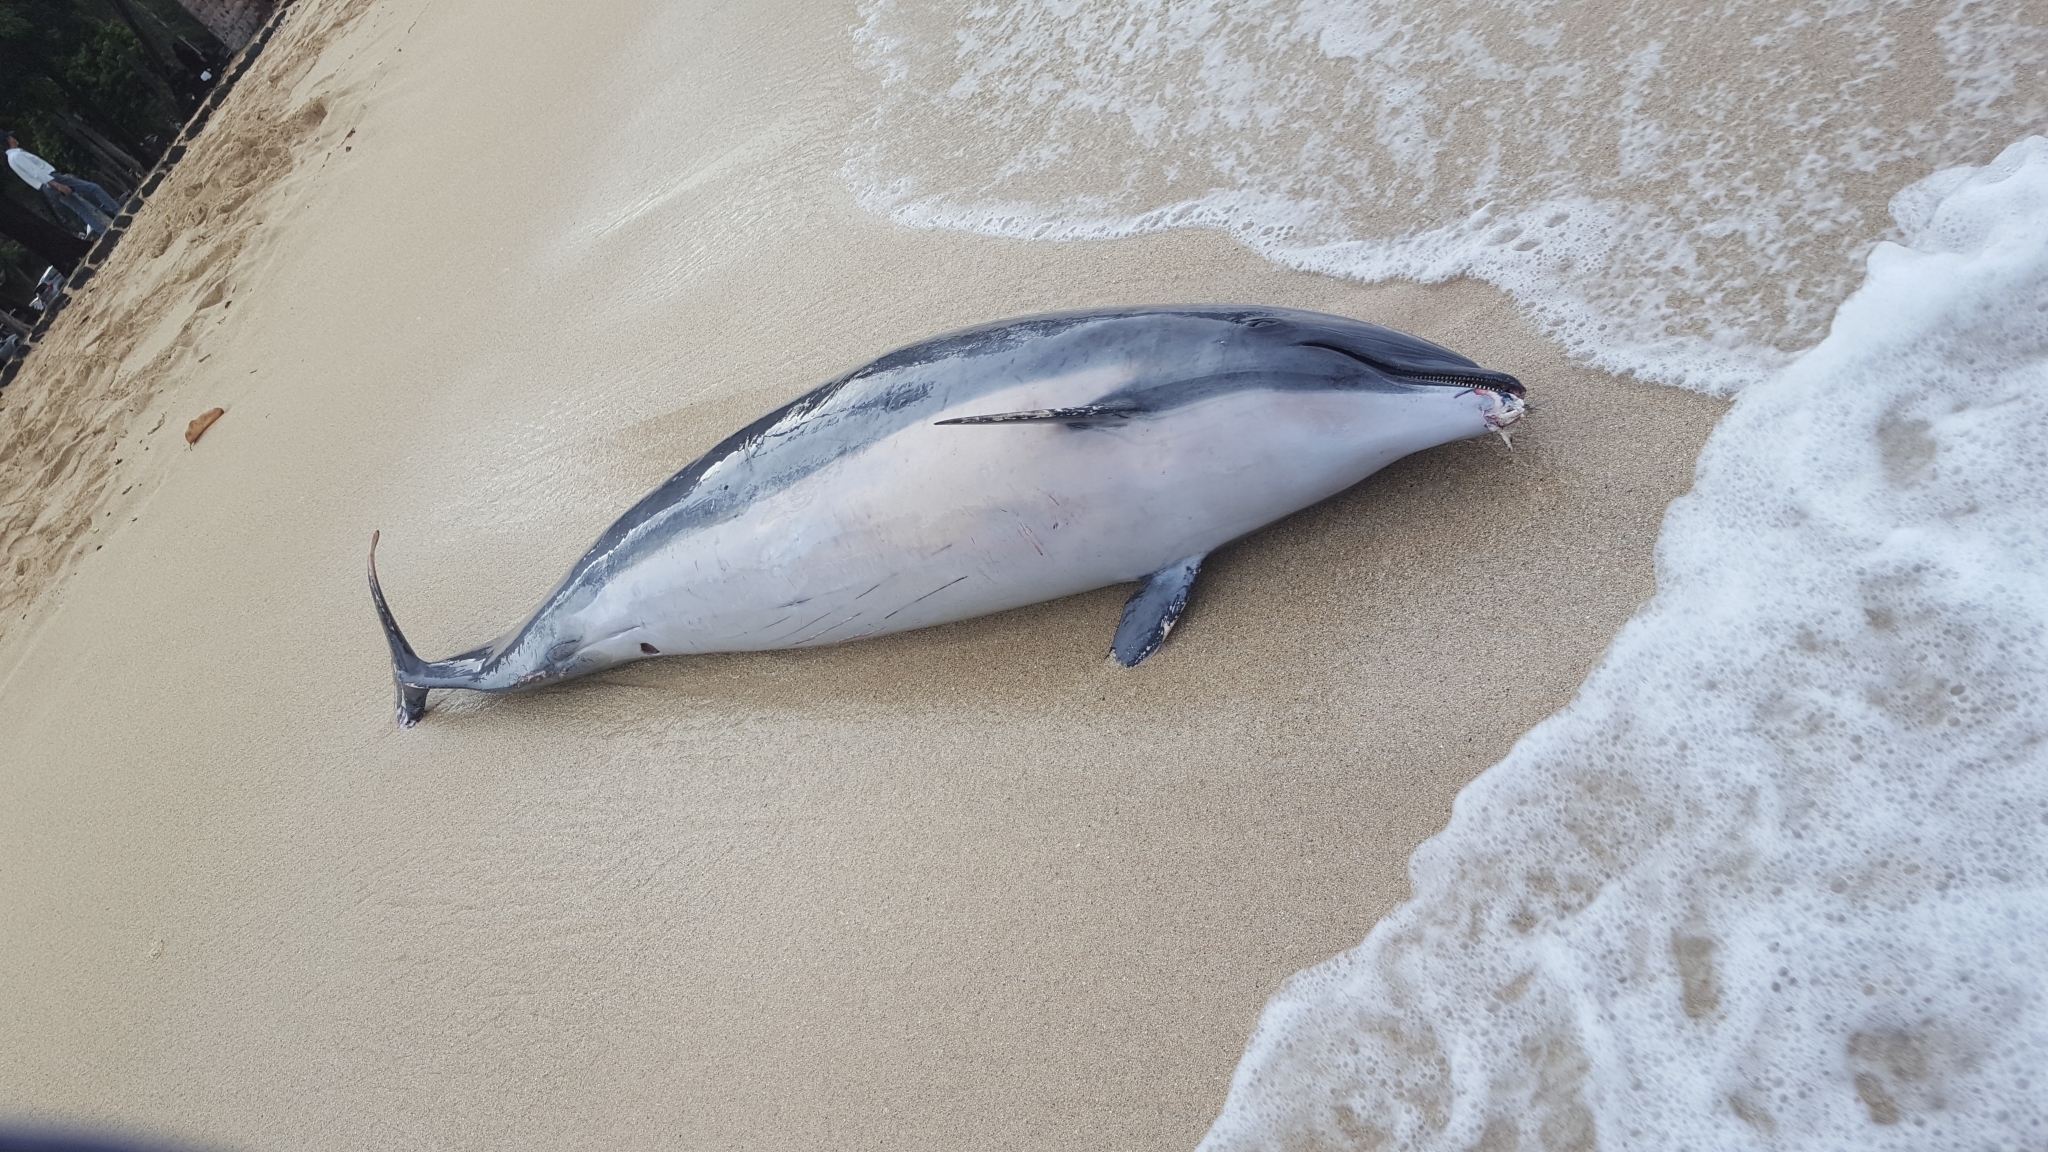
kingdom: Animalia
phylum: Chordata
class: Mammalia
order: Cetacea
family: Delphinidae
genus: Lagenodelphis
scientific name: Lagenodelphis hosei
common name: Fraser's dolphin
